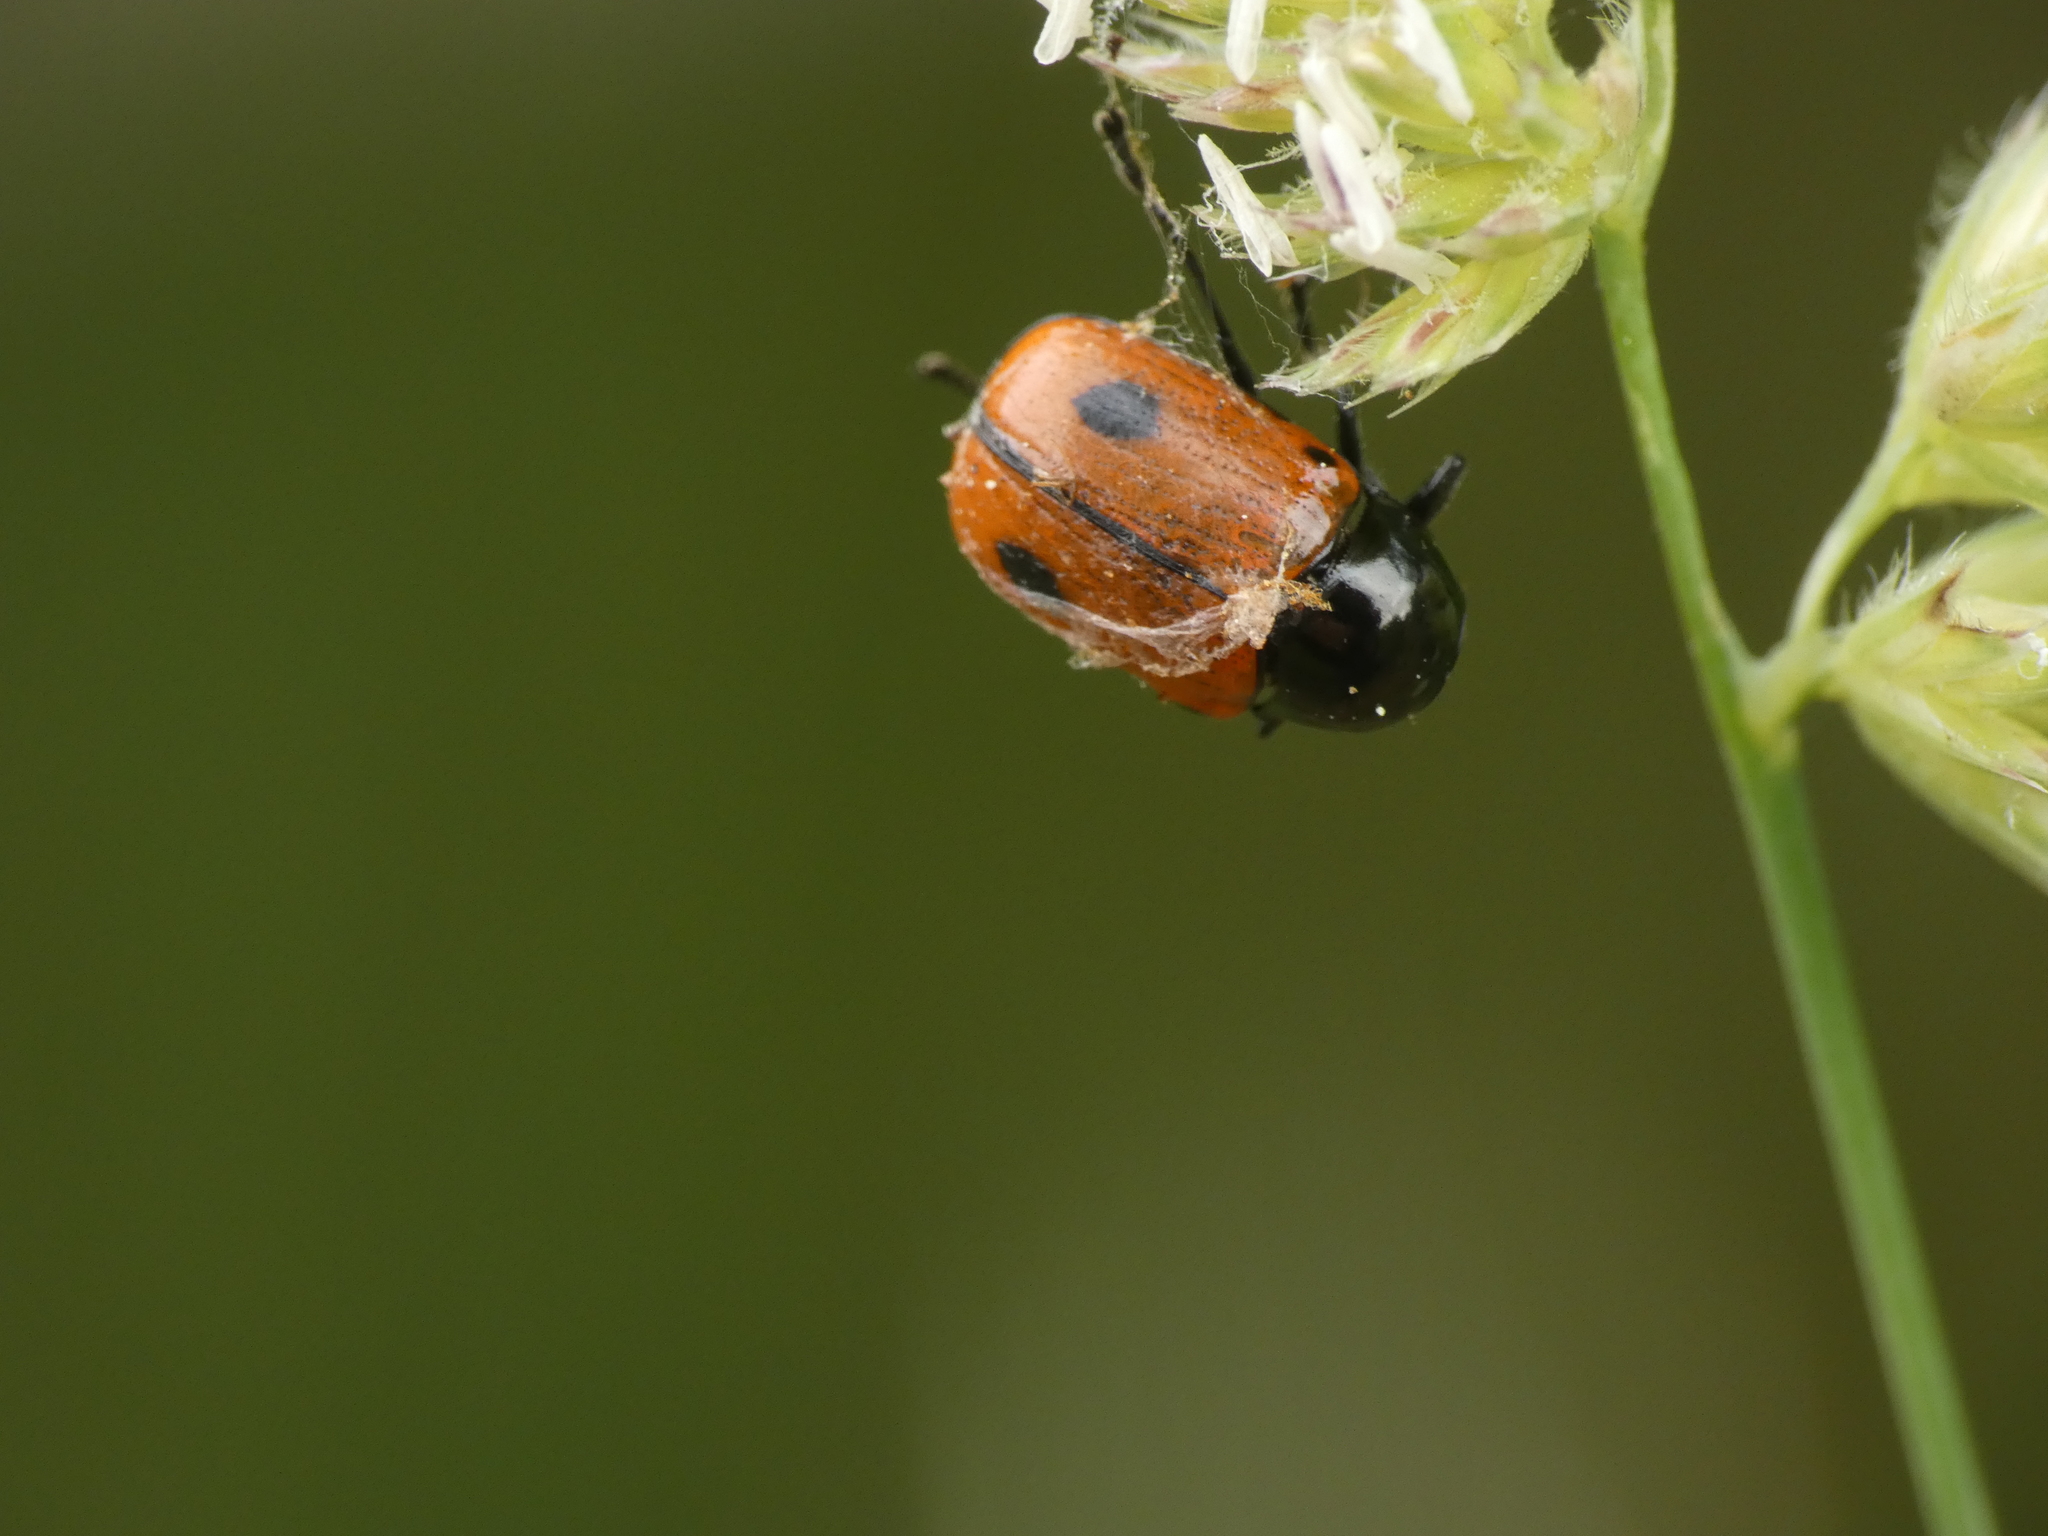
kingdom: Animalia
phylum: Arthropoda
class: Insecta
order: Coleoptera
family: Chrysomelidae
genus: Chiridopsis
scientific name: Chiridopsis bipunctata
